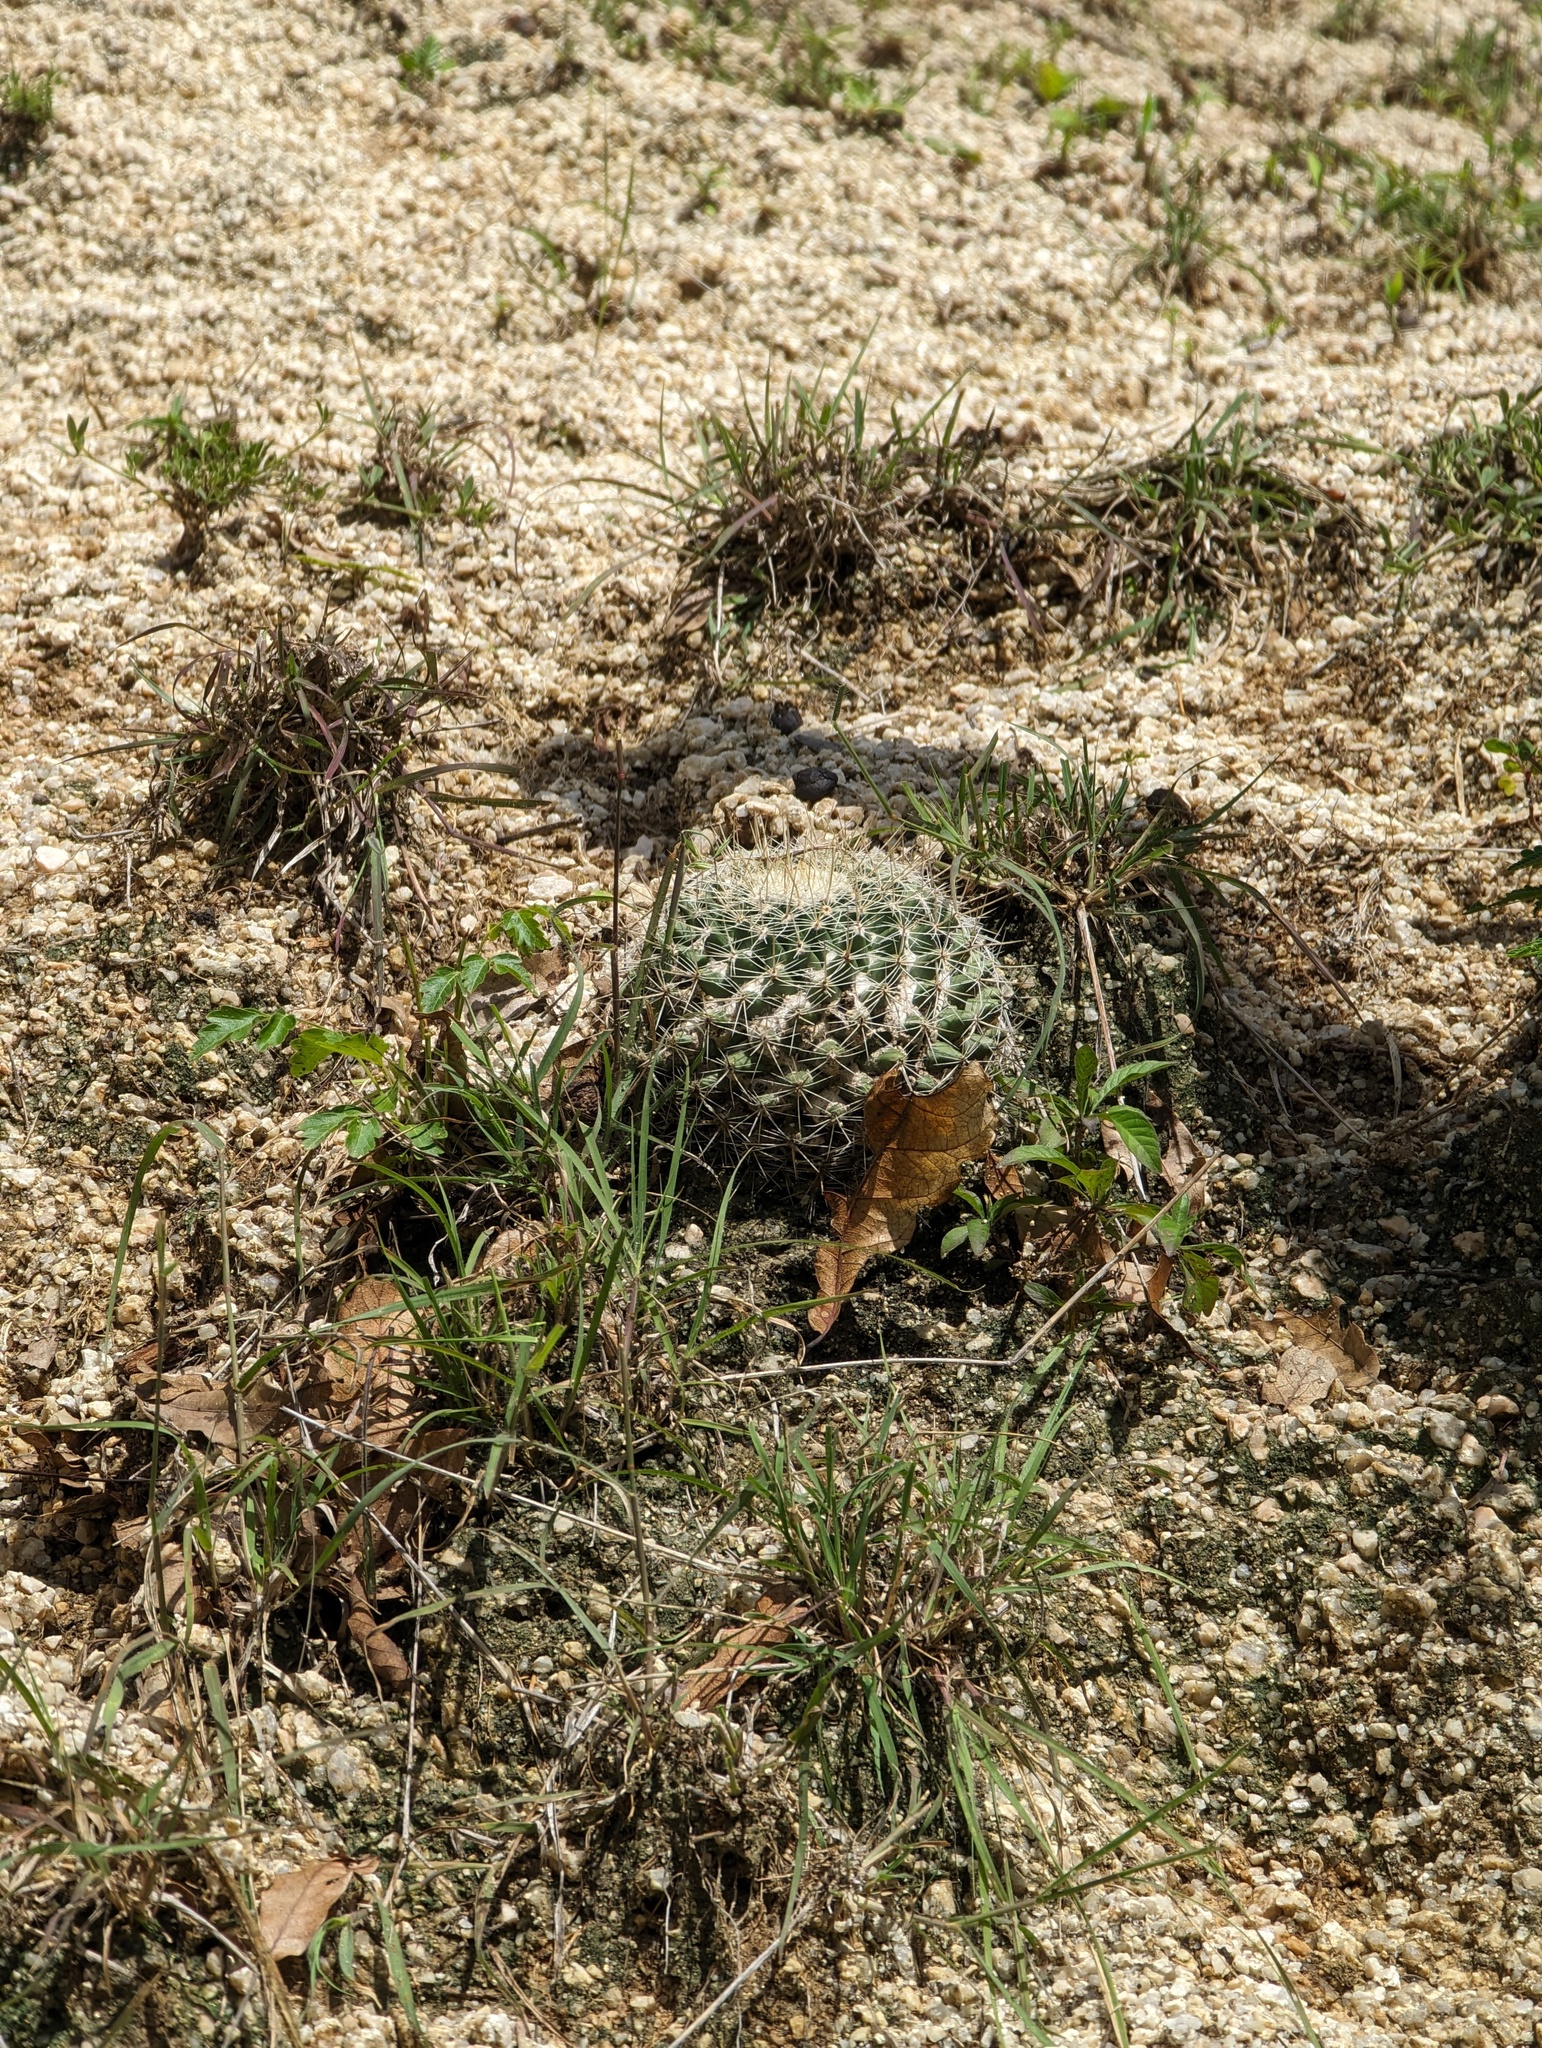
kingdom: Plantae
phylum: Tracheophyta
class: Magnoliopsida
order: Caryophyllales
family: Cactaceae
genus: Mammillaria
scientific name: Mammillaria petrophila
